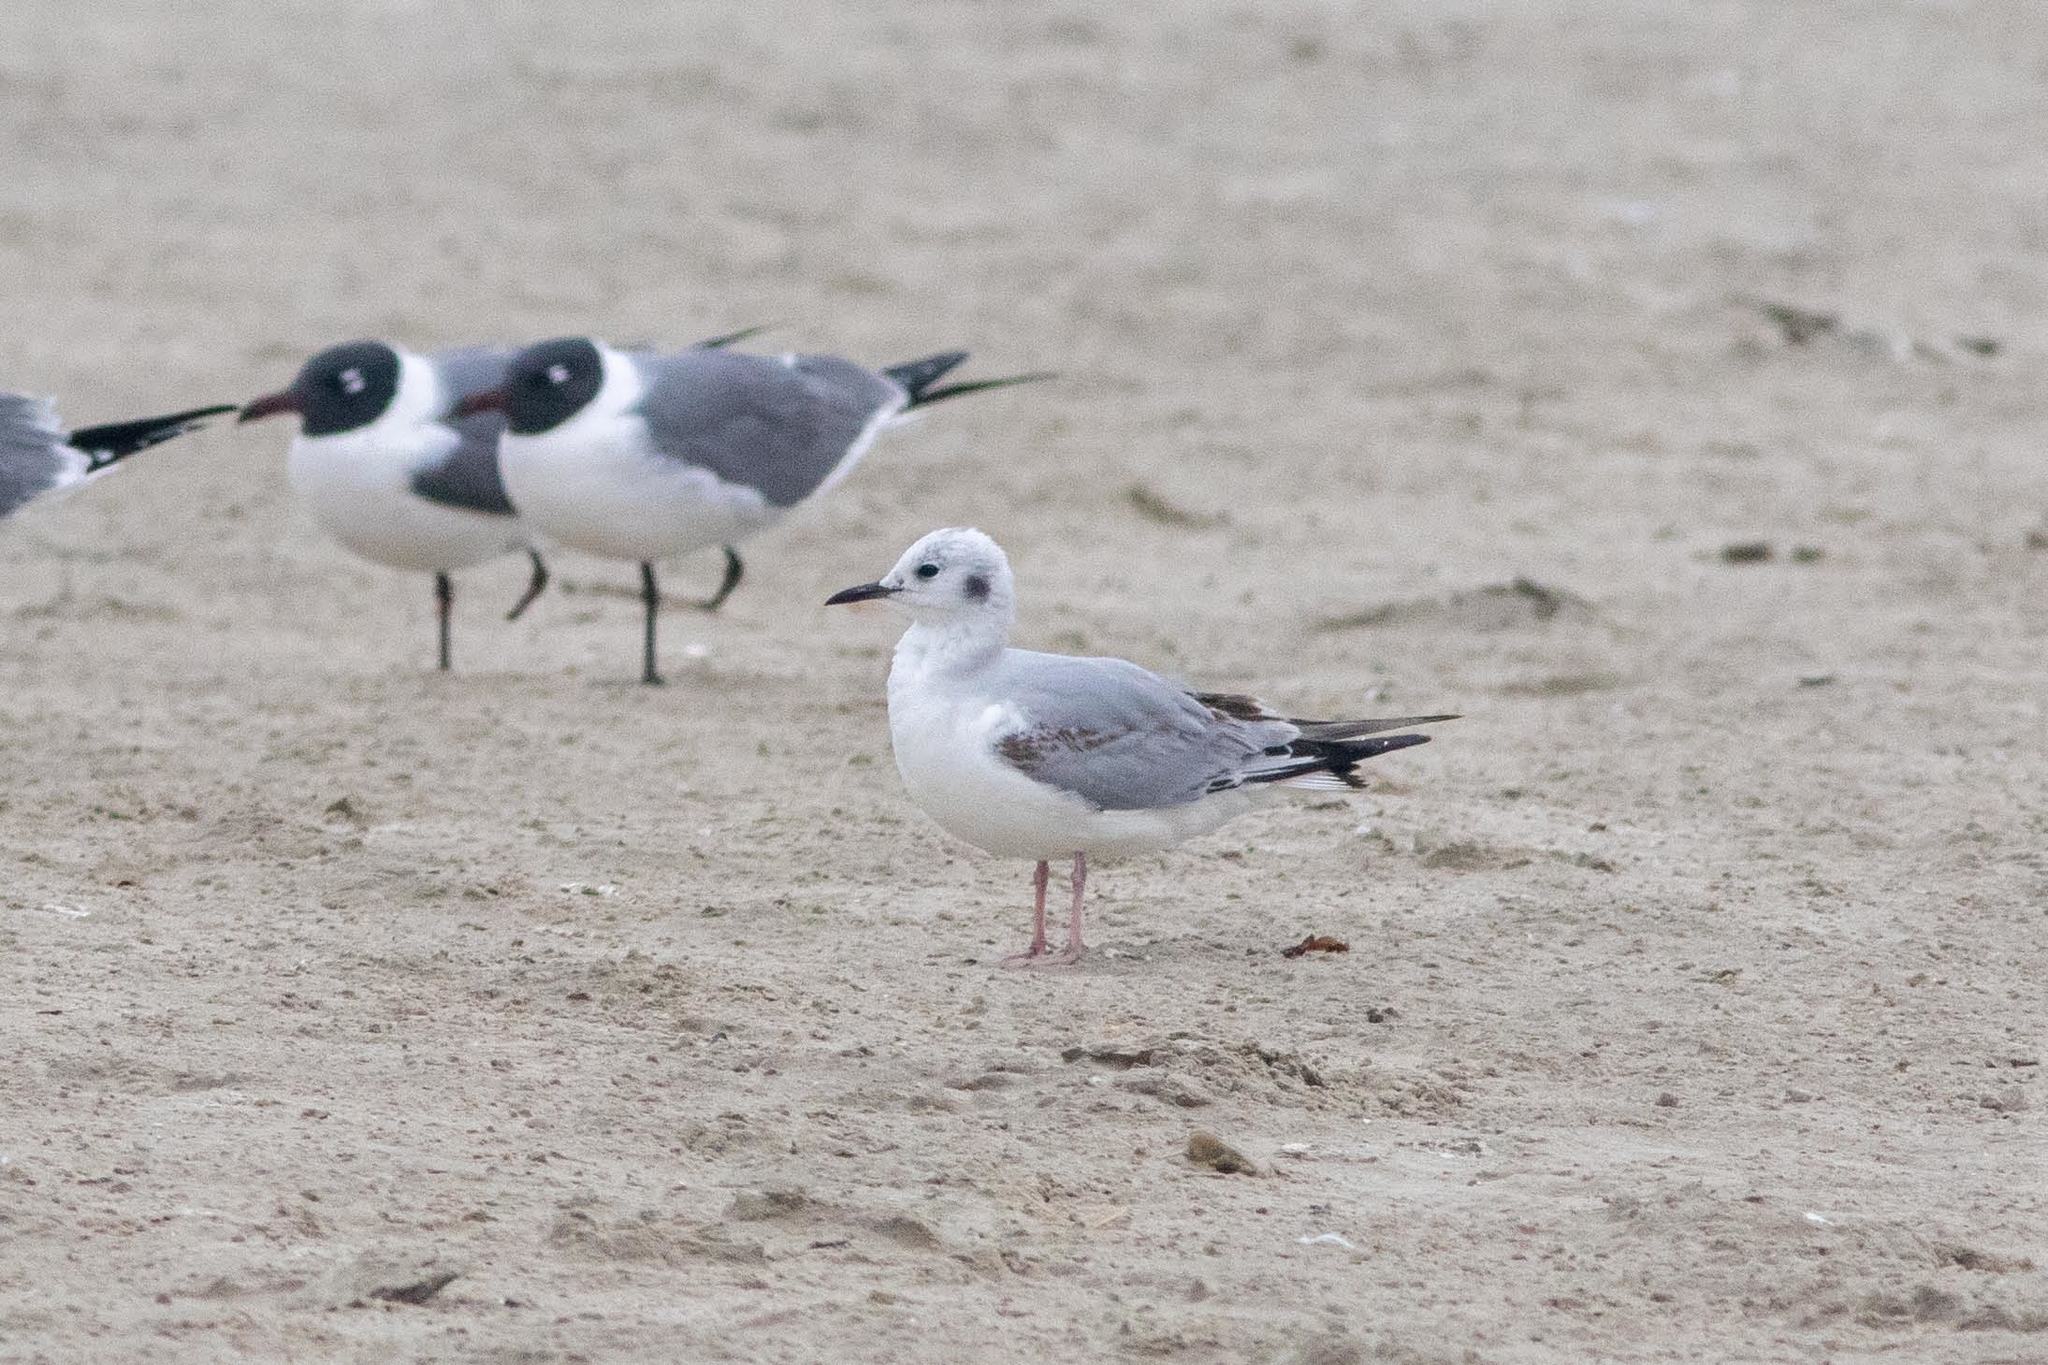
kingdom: Animalia
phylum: Chordata
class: Aves
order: Charadriiformes
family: Laridae
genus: Chroicocephalus
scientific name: Chroicocephalus philadelphia
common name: Bonaparte's gull
